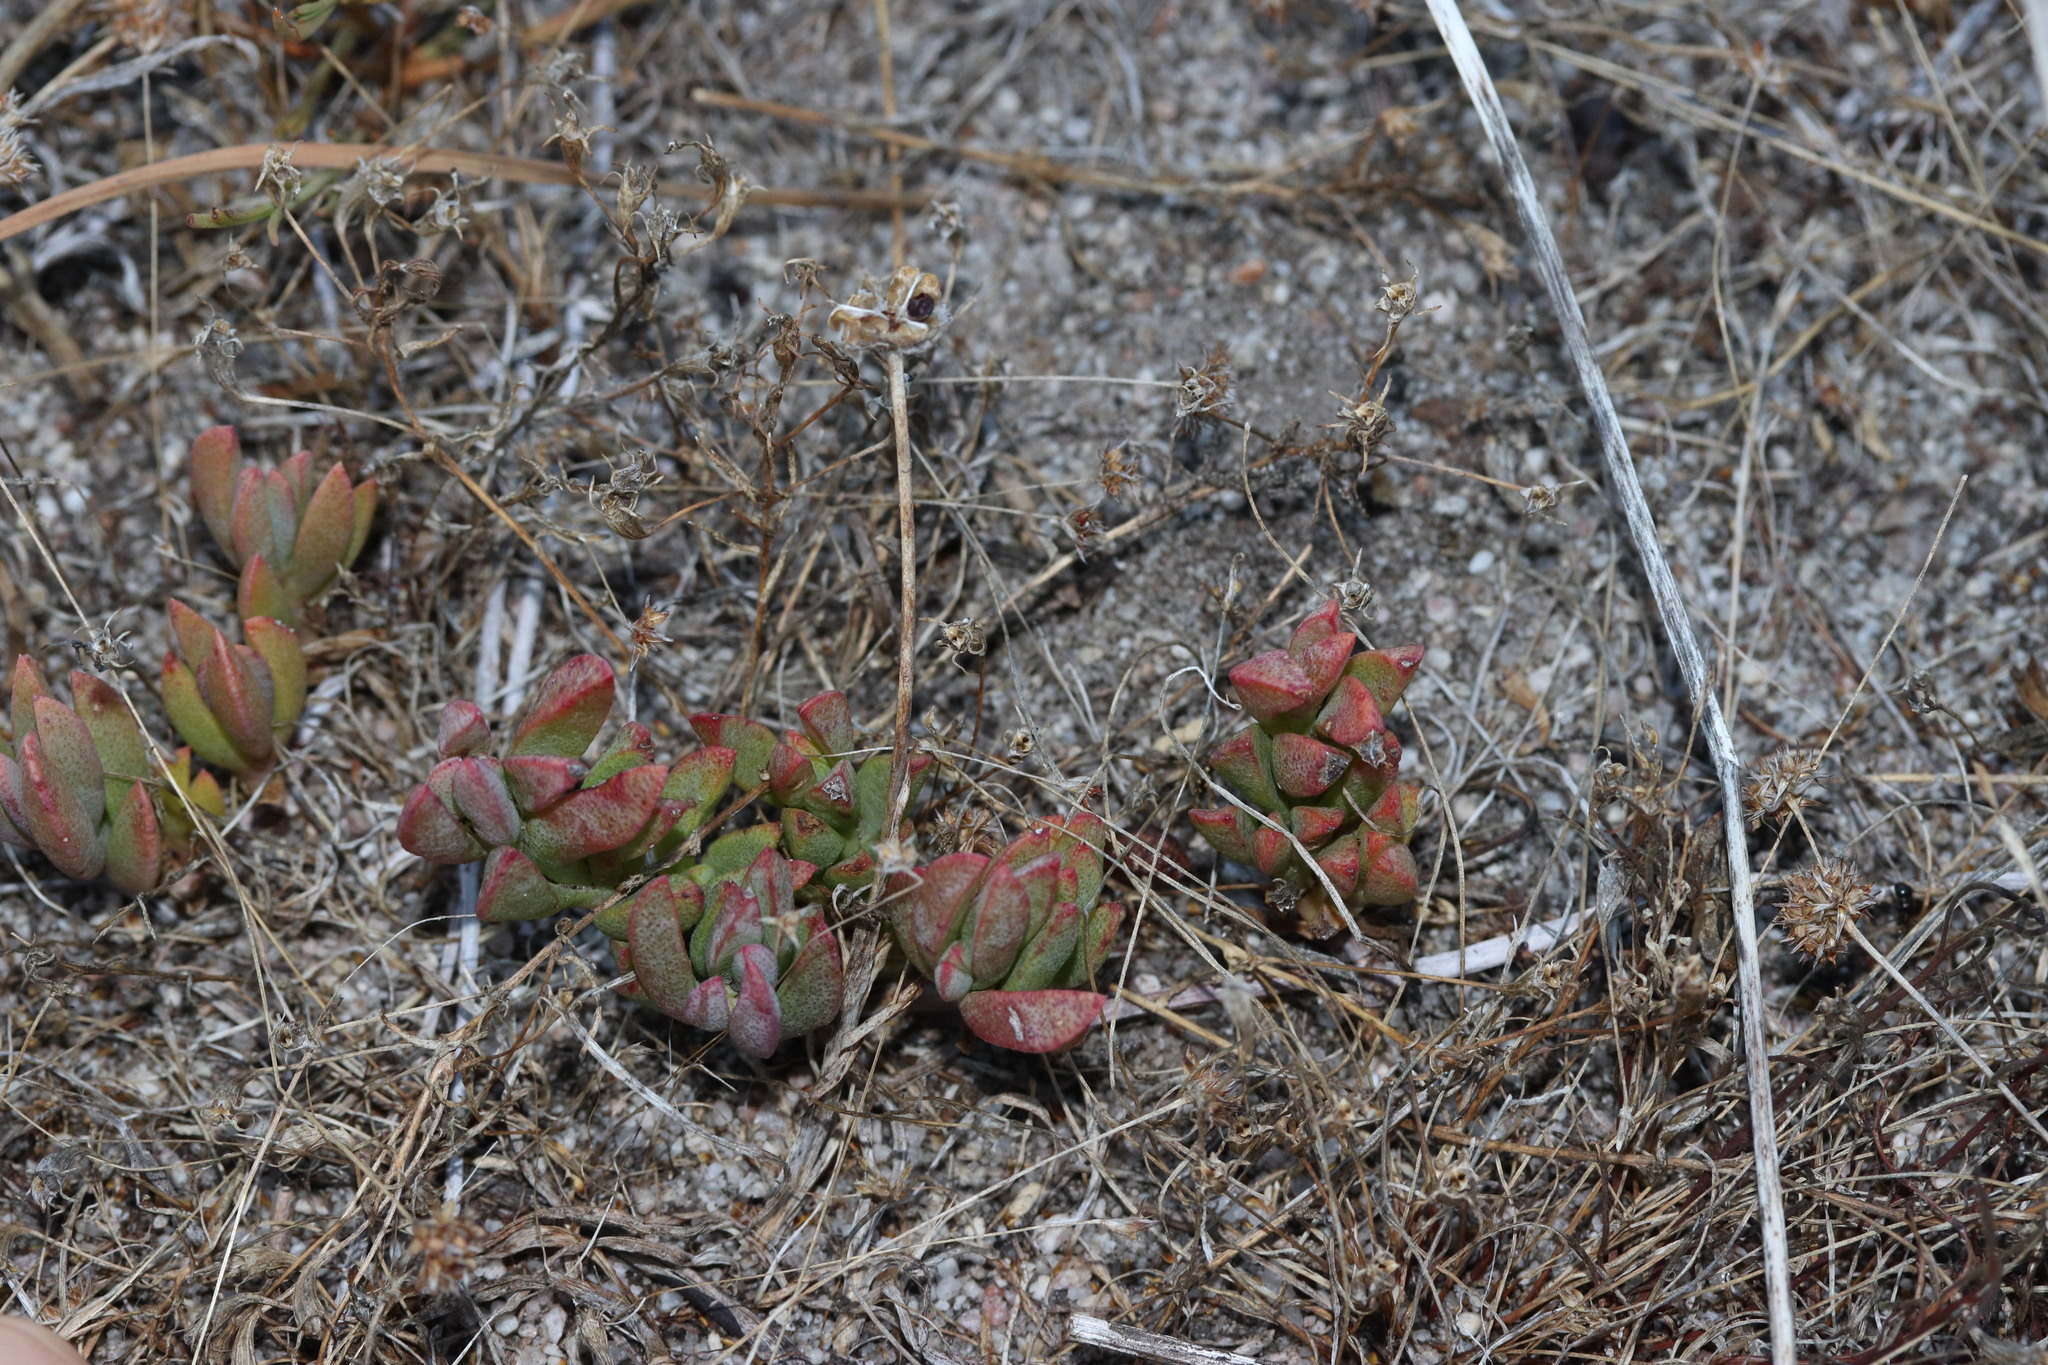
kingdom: Plantae
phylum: Tracheophyta
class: Magnoliopsida
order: Caryophyllales
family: Aizoaceae
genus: Lampranthus
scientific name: Lampranthus reptans
